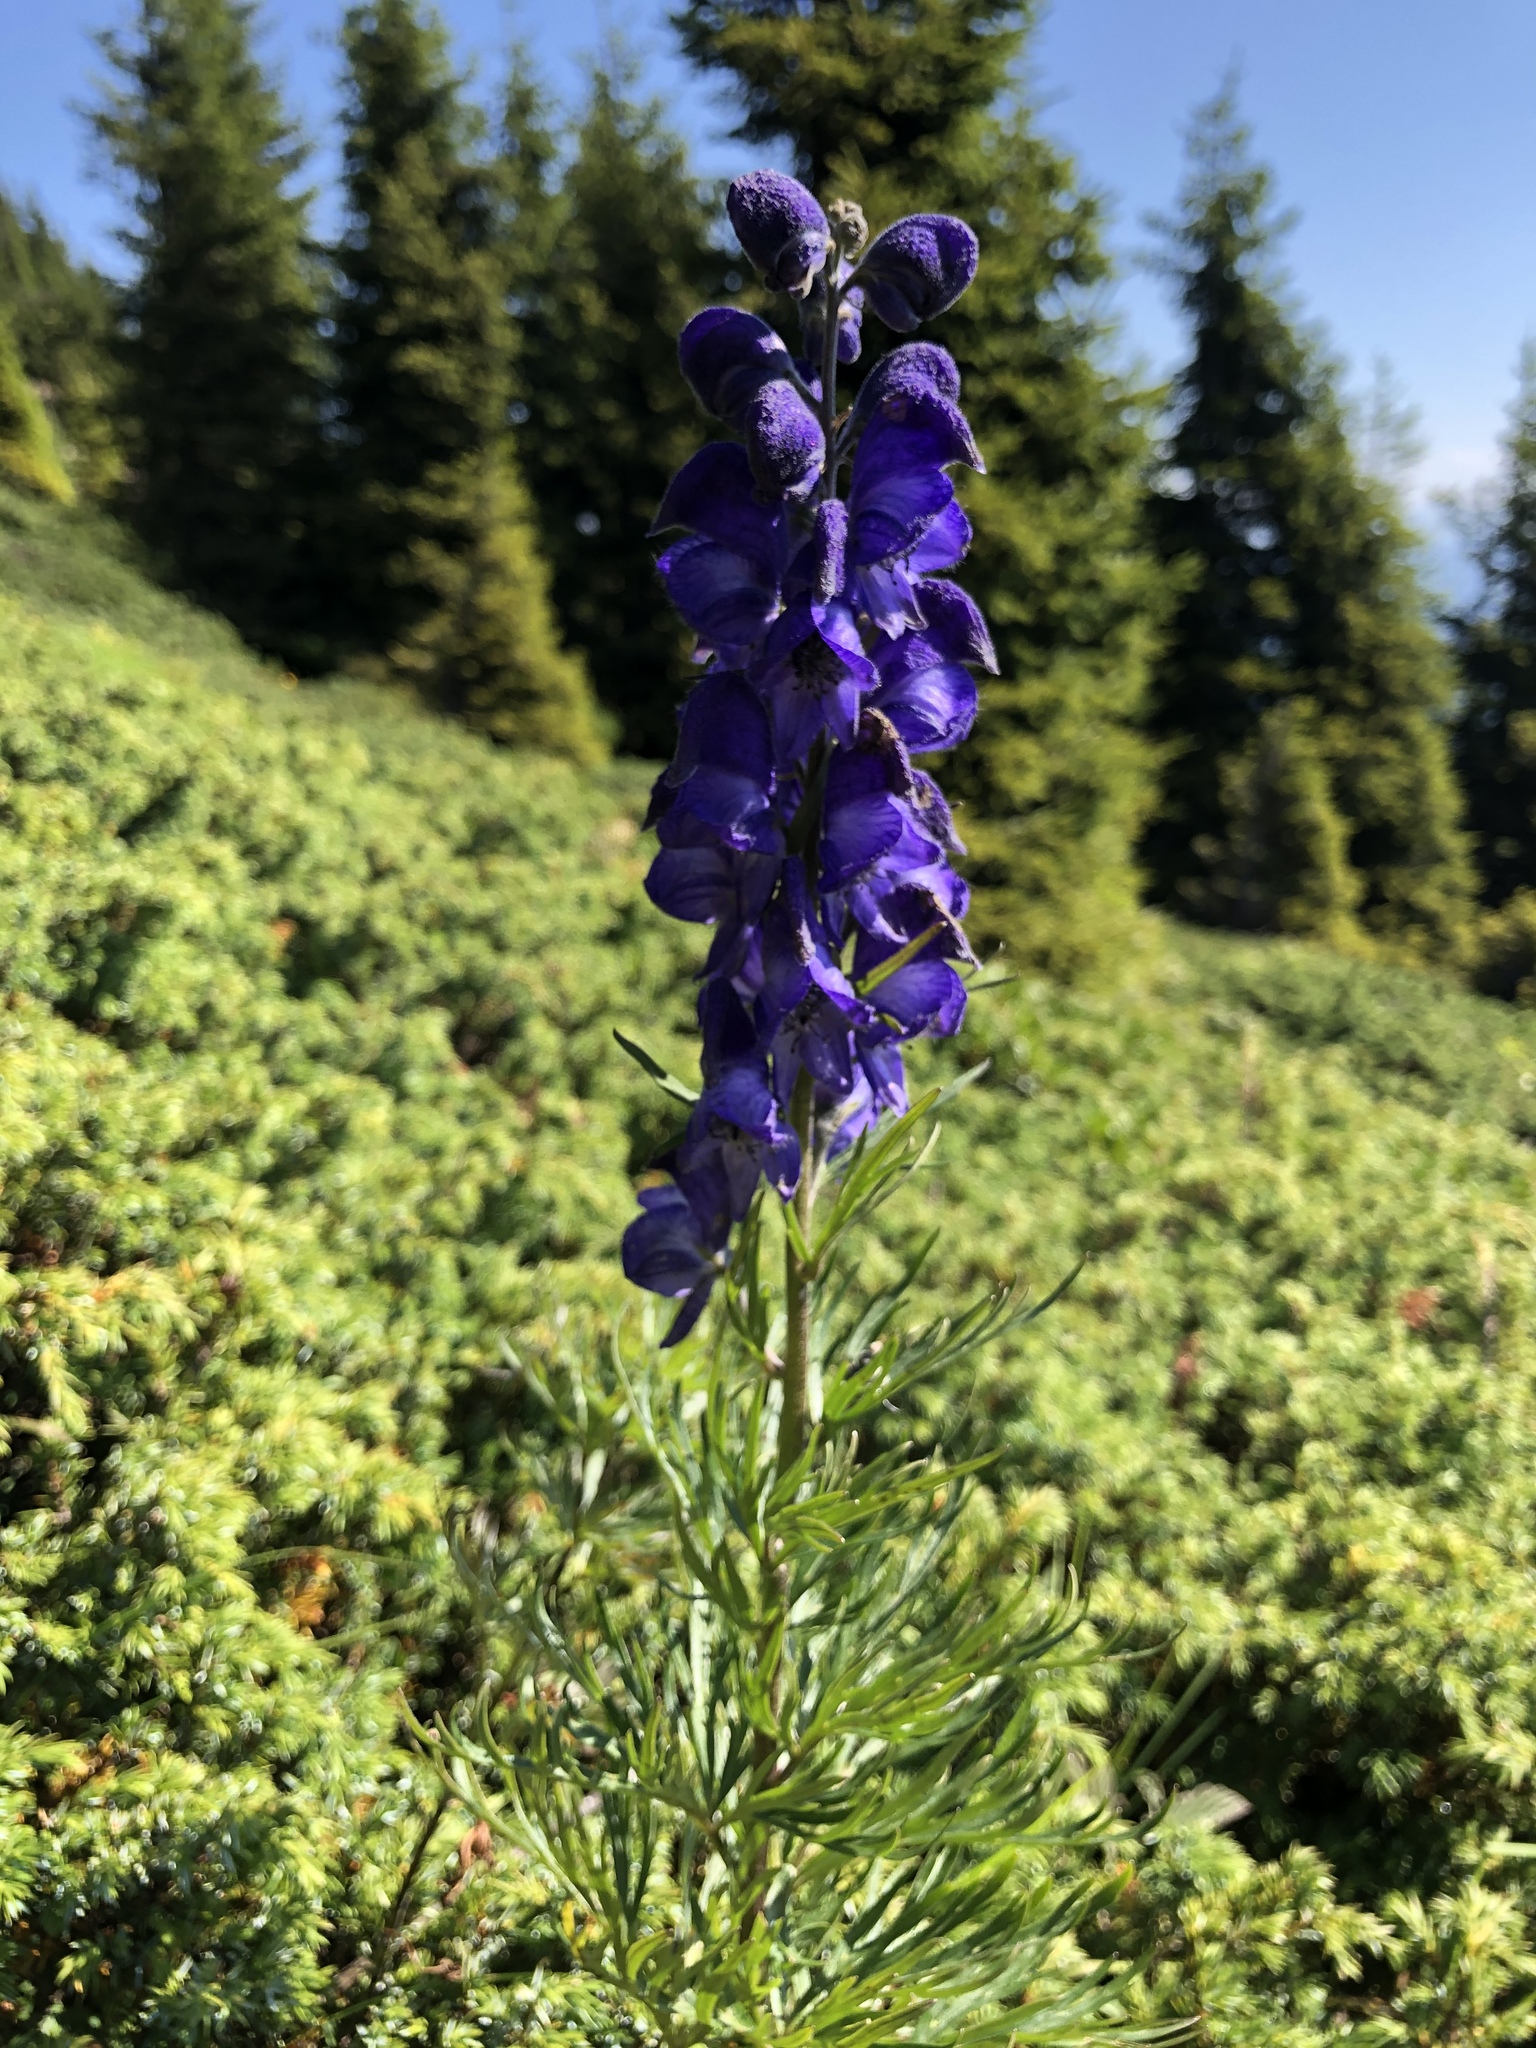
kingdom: Plantae
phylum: Tracheophyta
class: Magnoliopsida
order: Ranunculales
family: Ranunculaceae
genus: Aconitum
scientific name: Aconitum napellus
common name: Garden monkshood
